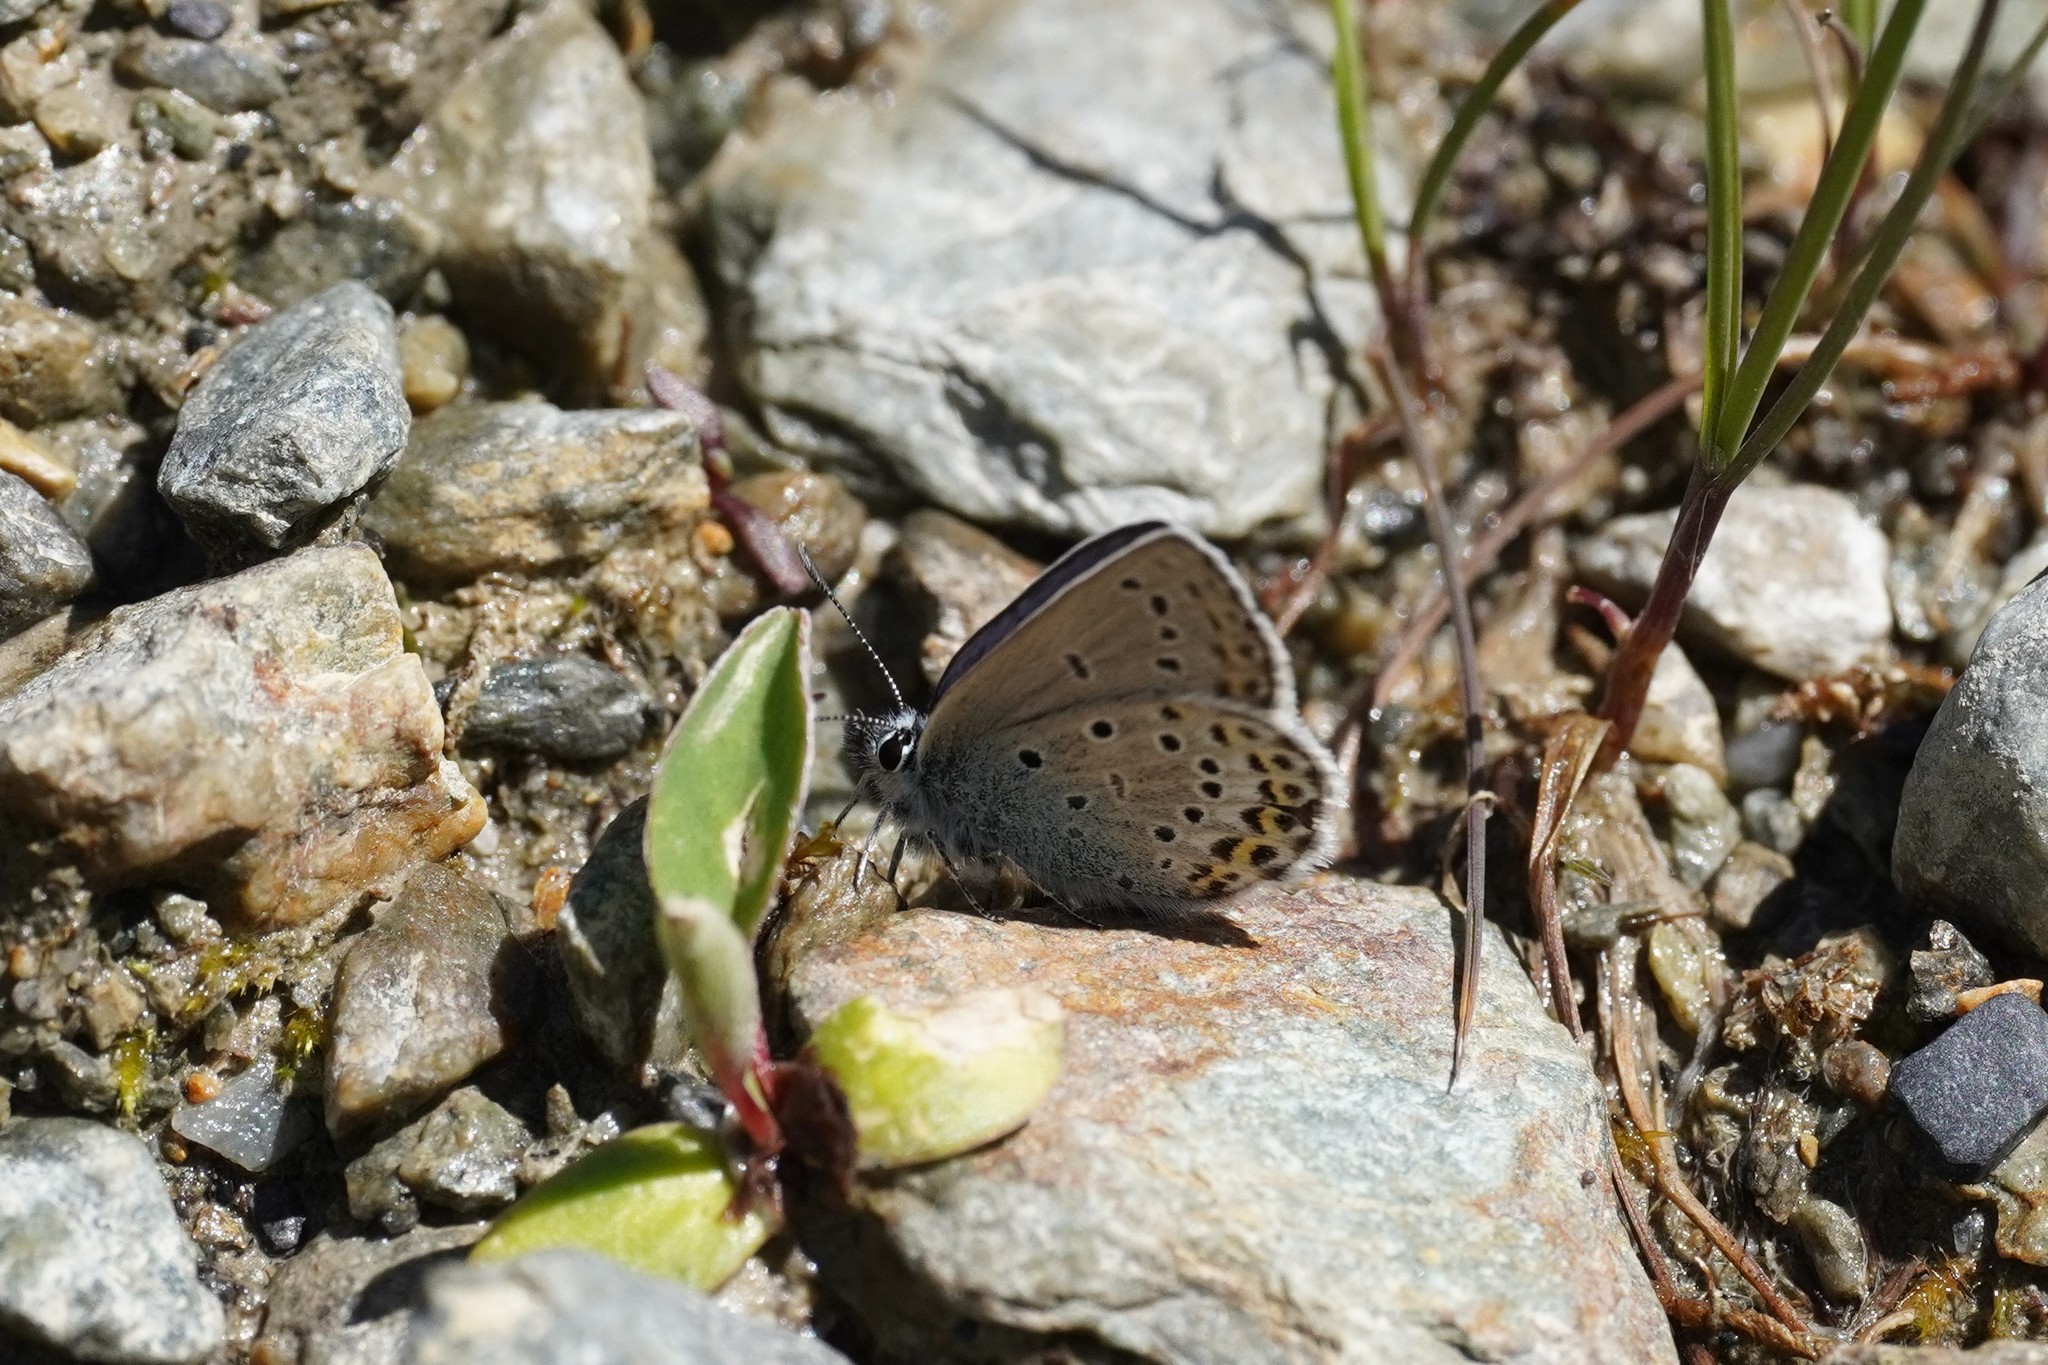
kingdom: Animalia
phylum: Arthropoda
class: Insecta
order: Lepidoptera
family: Lycaenidae
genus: Lycaeides
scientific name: Lycaeides idas
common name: Northern blue
